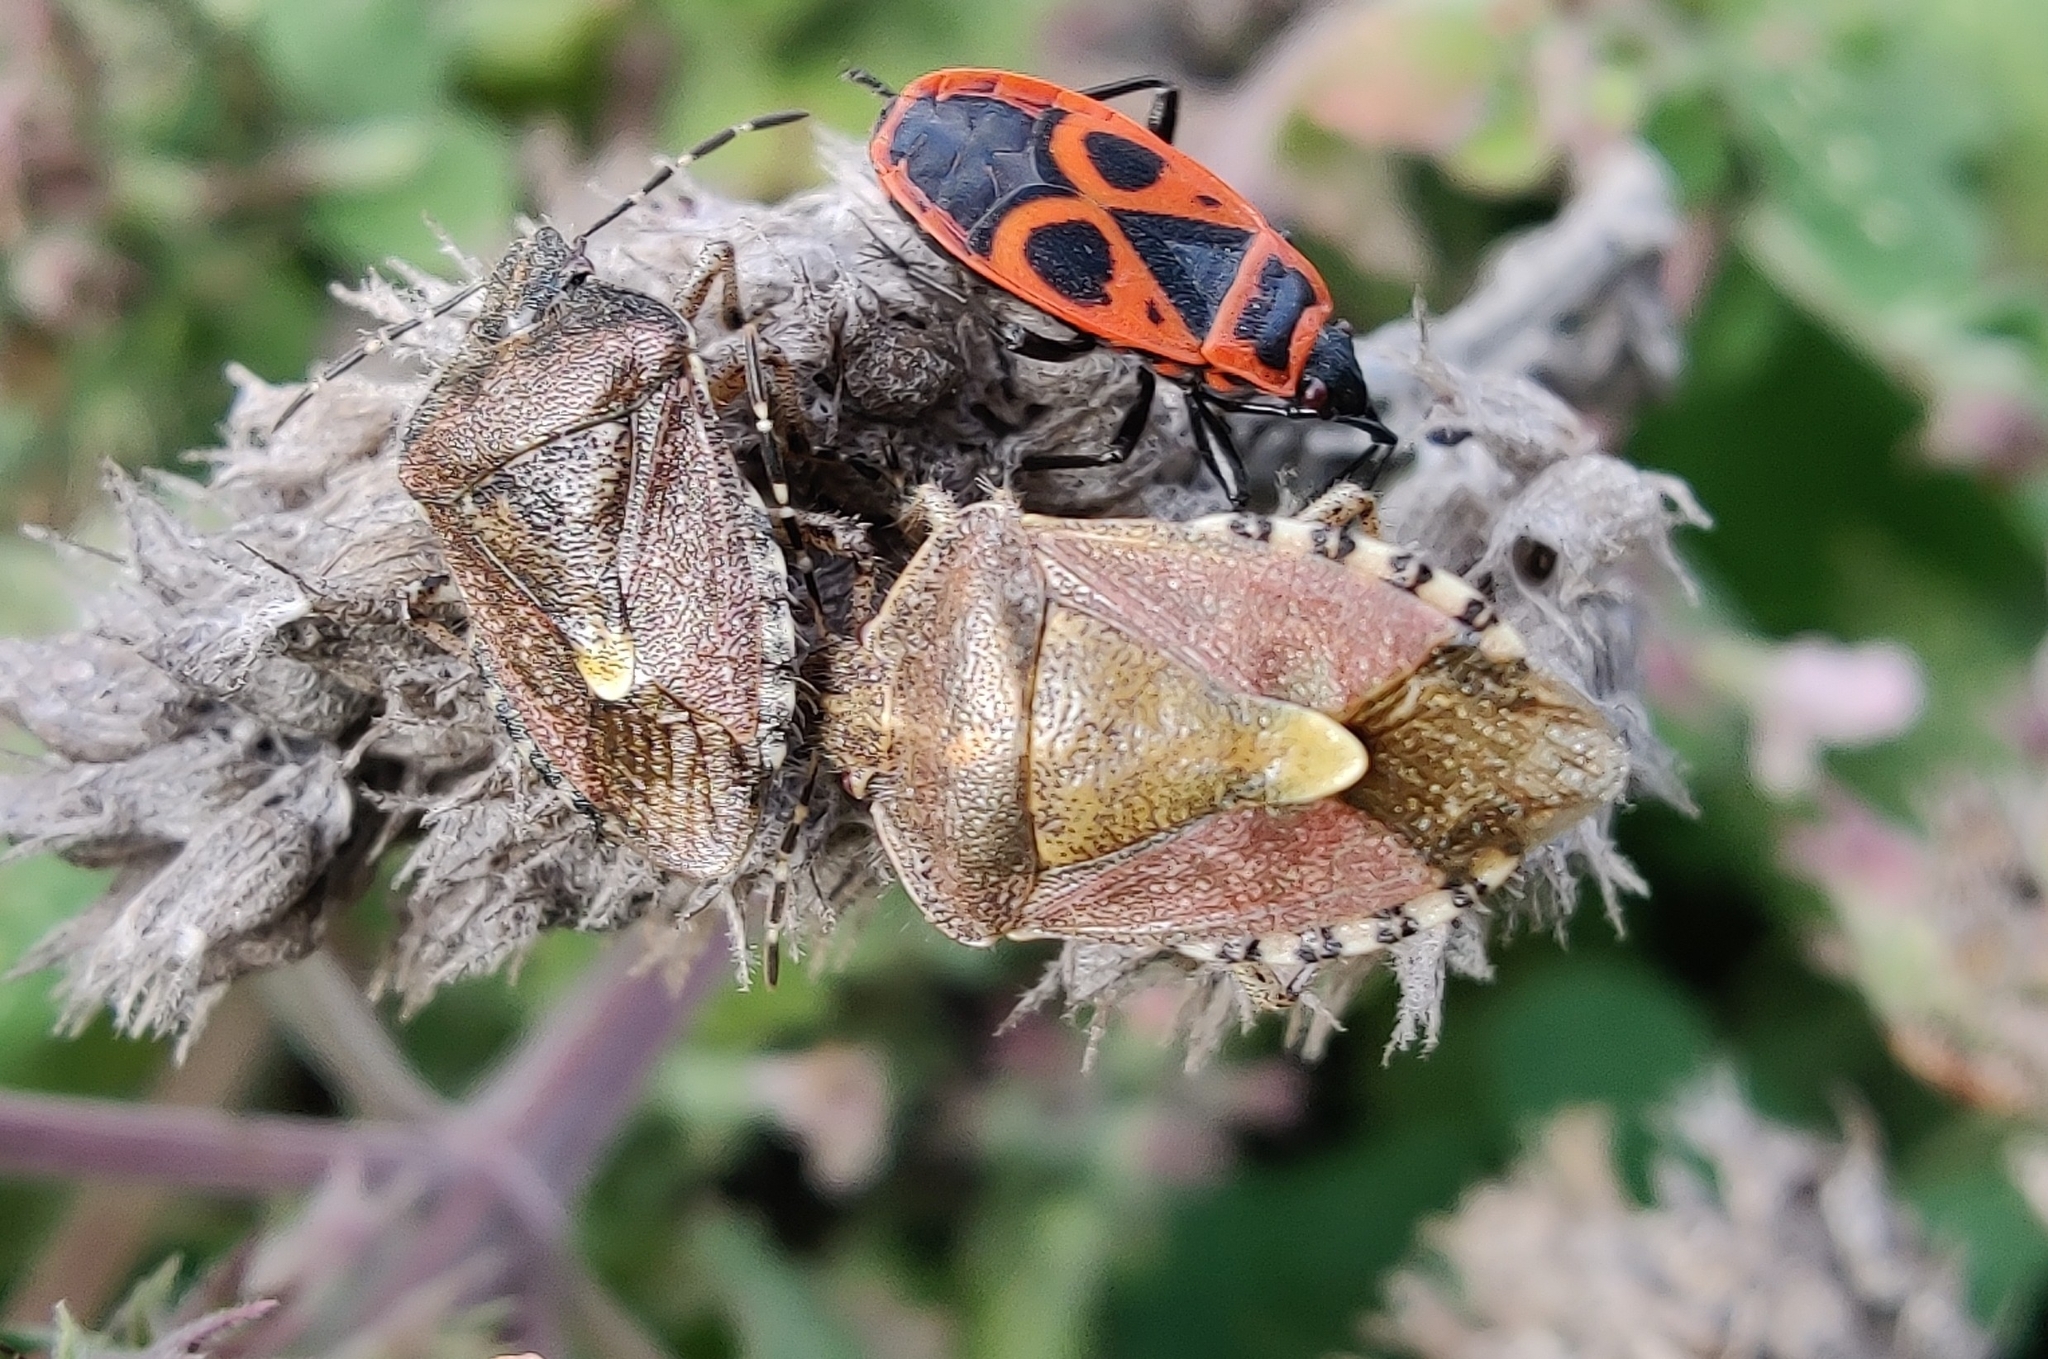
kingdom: Animalia
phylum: Arthropoda
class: Insecta
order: Hemiptera
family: Pentatomidae
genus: Dolycoris
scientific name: Dolycoris baccarum
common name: Sloe bug
